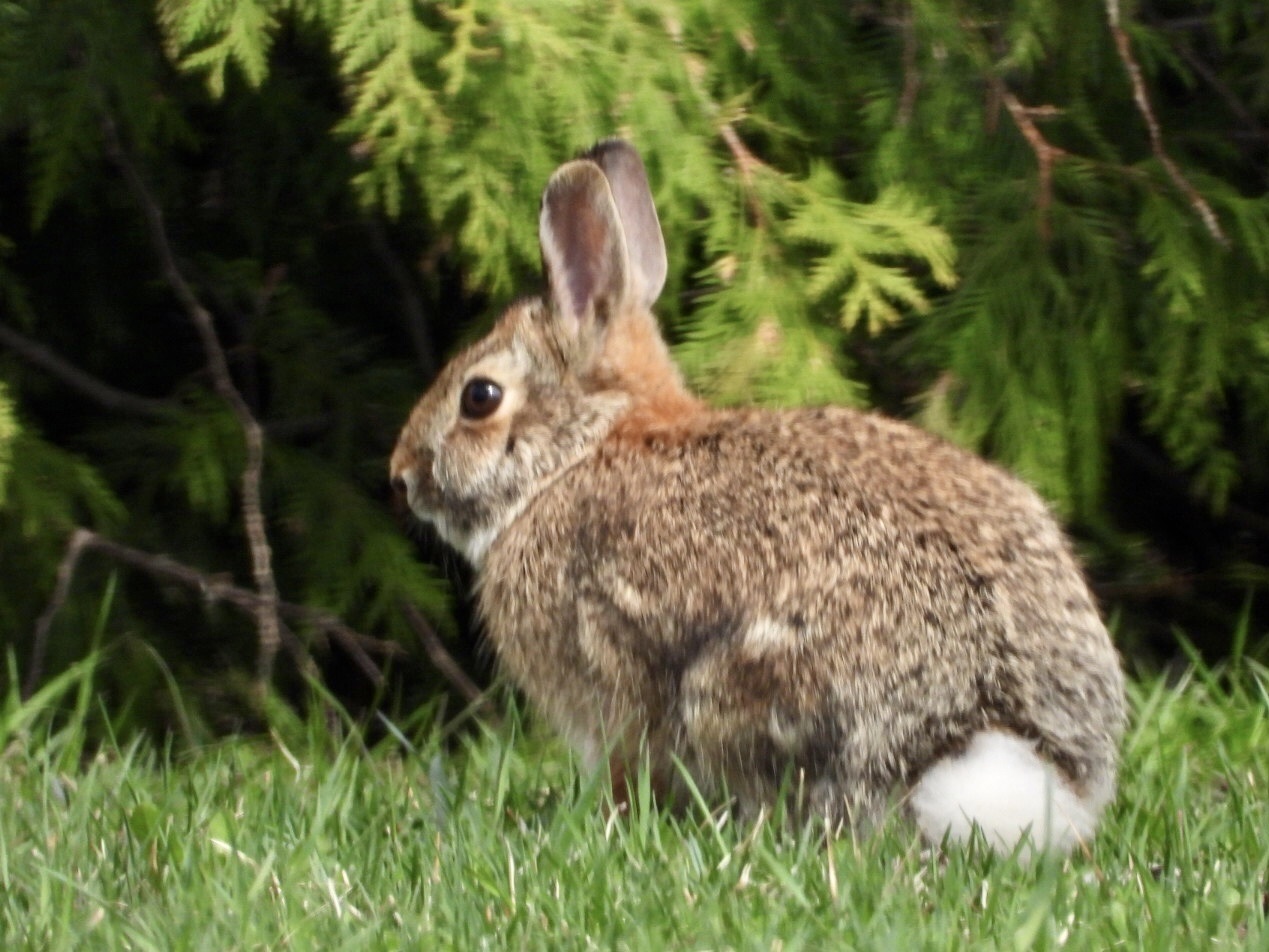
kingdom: Animalia
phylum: Chordata
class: Mammalia
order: Lagomorpha
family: Leporidae
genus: Sylvilagus
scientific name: Sylvilagus floridanus
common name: Eastern cottontail
